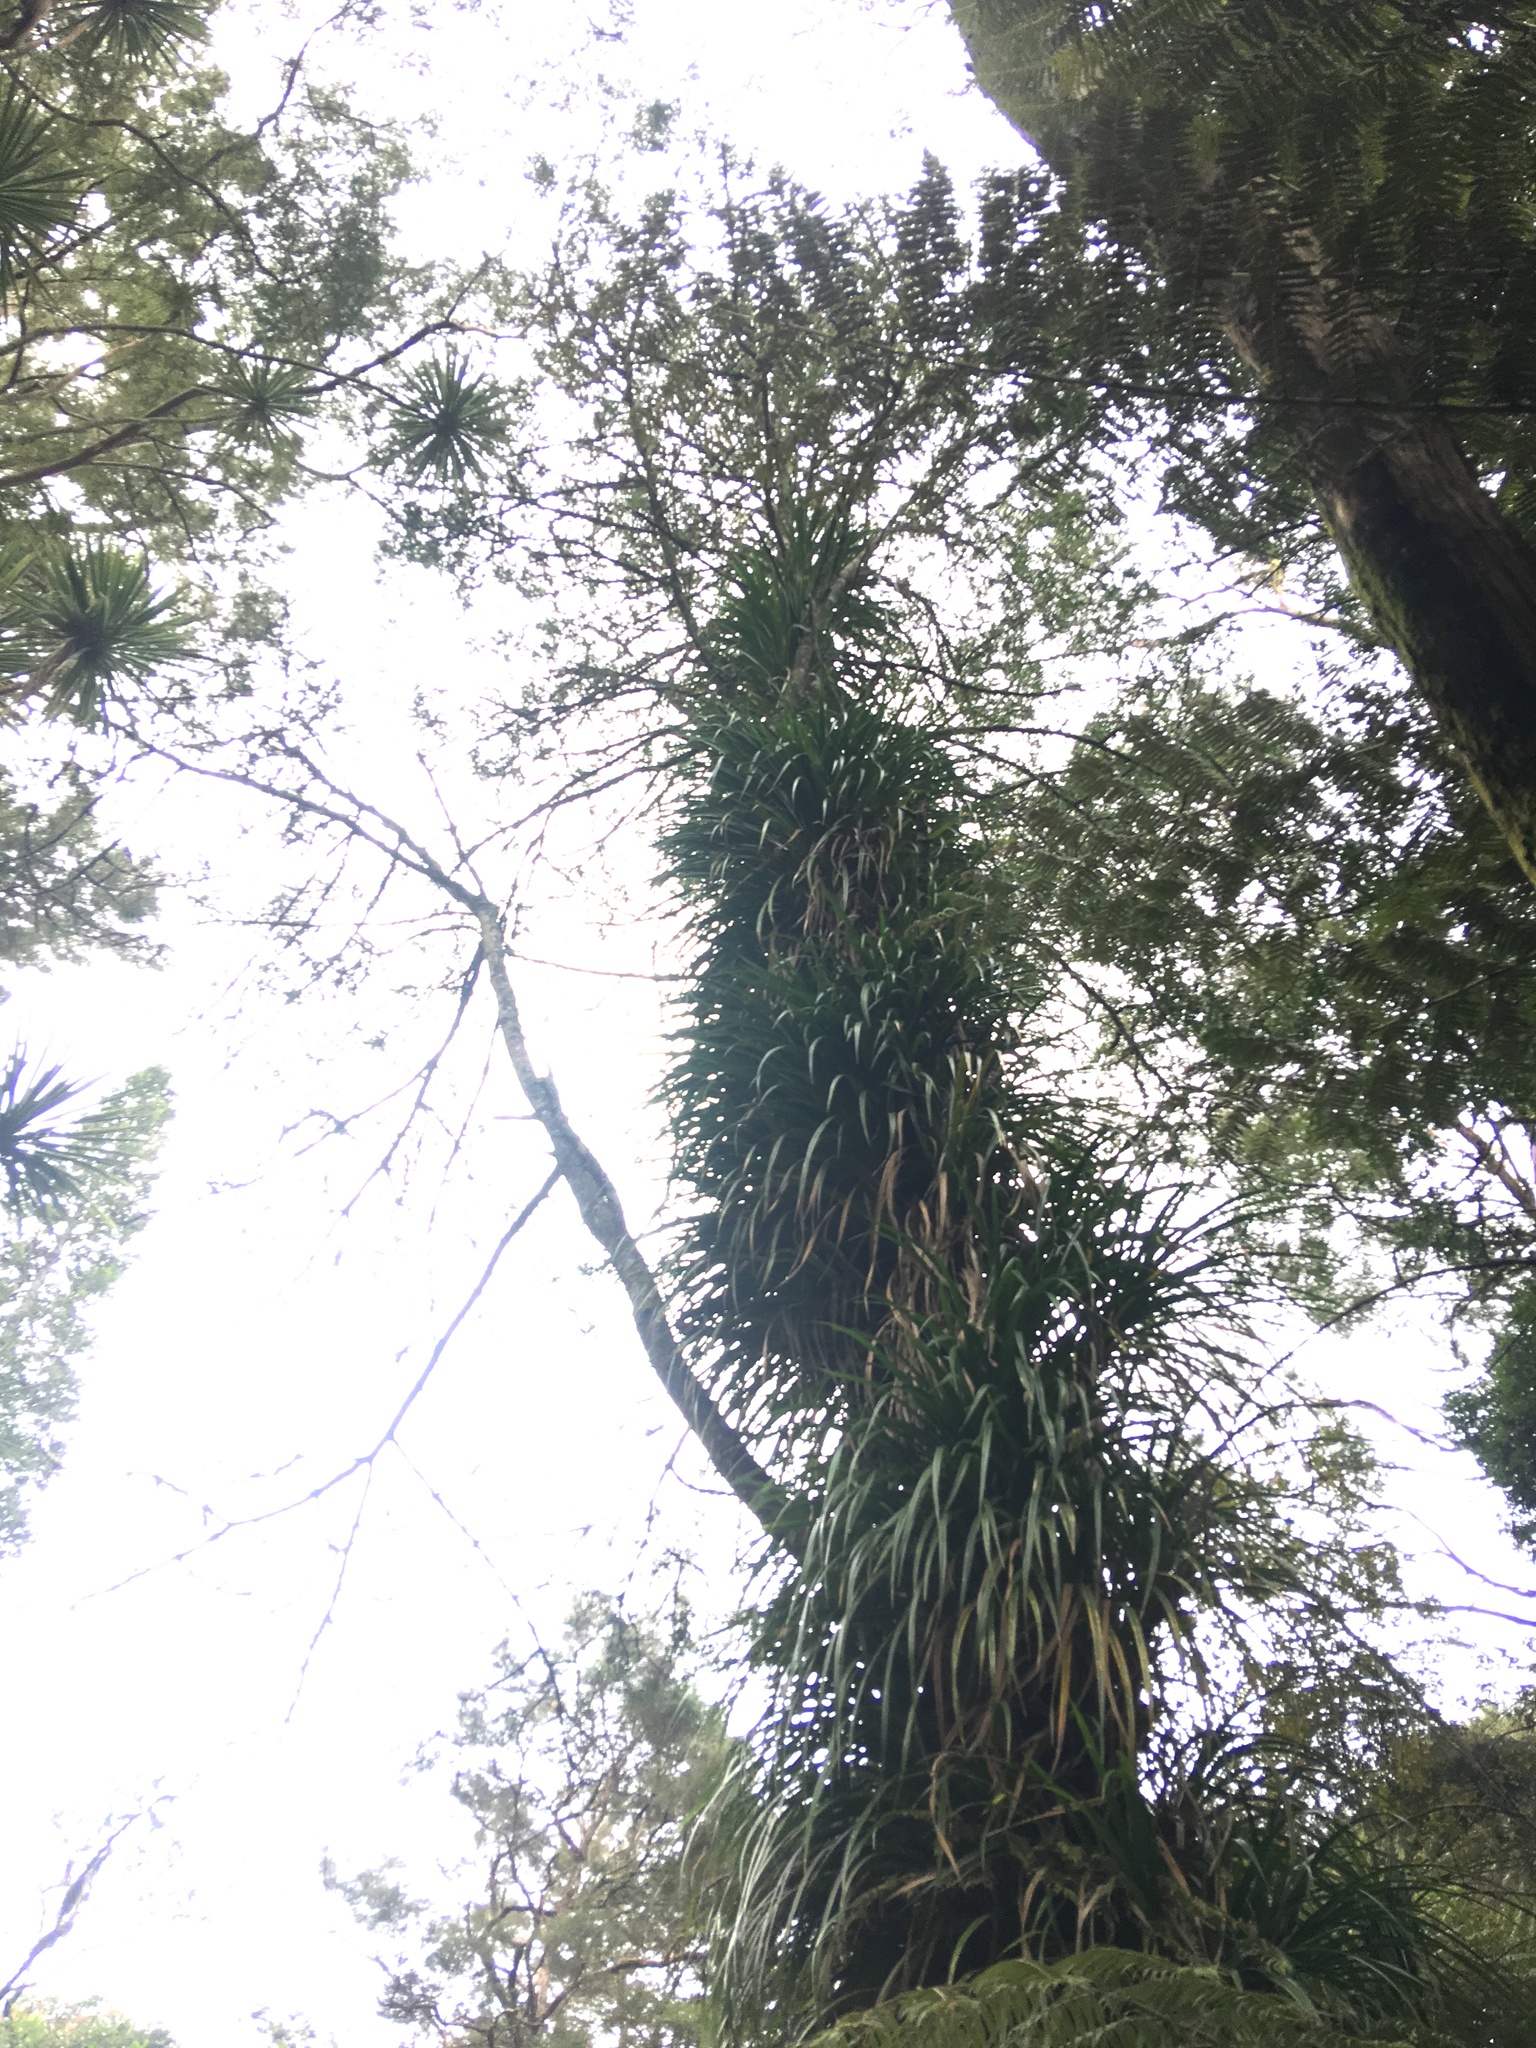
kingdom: Plantae
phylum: Tracheophyta
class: Liliopsida
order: Pandanales
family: Pandanaceae
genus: Freycinetia
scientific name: Freycinetia banksii
